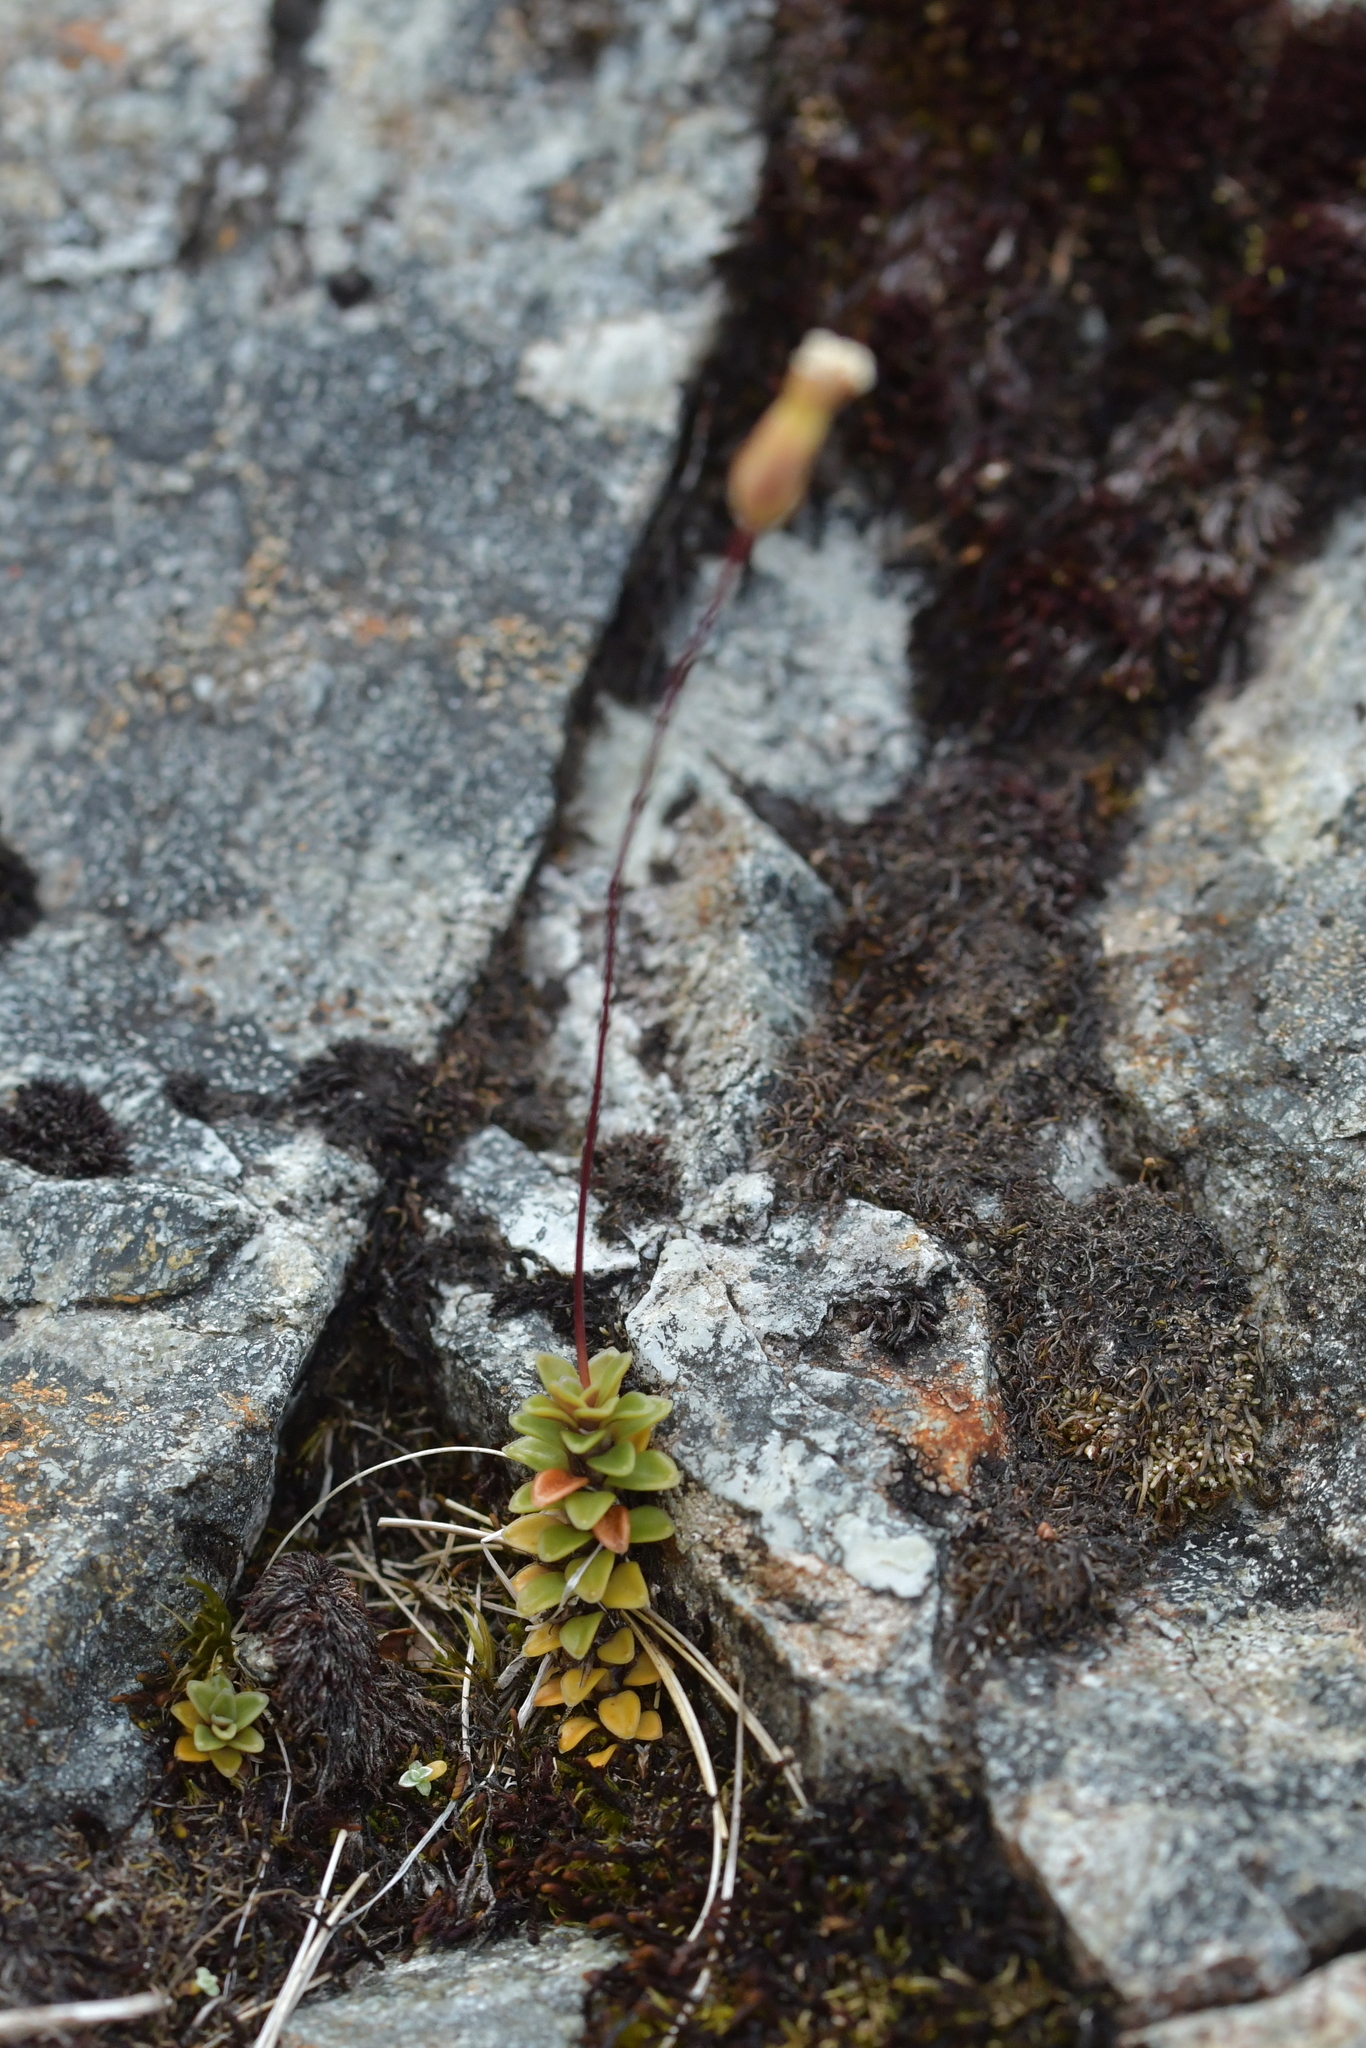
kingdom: Plantae
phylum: Tracheophyta
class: Magnoliopsida
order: Asterales
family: Stylidiaceae
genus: Forstera
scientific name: Forstera purpurata
